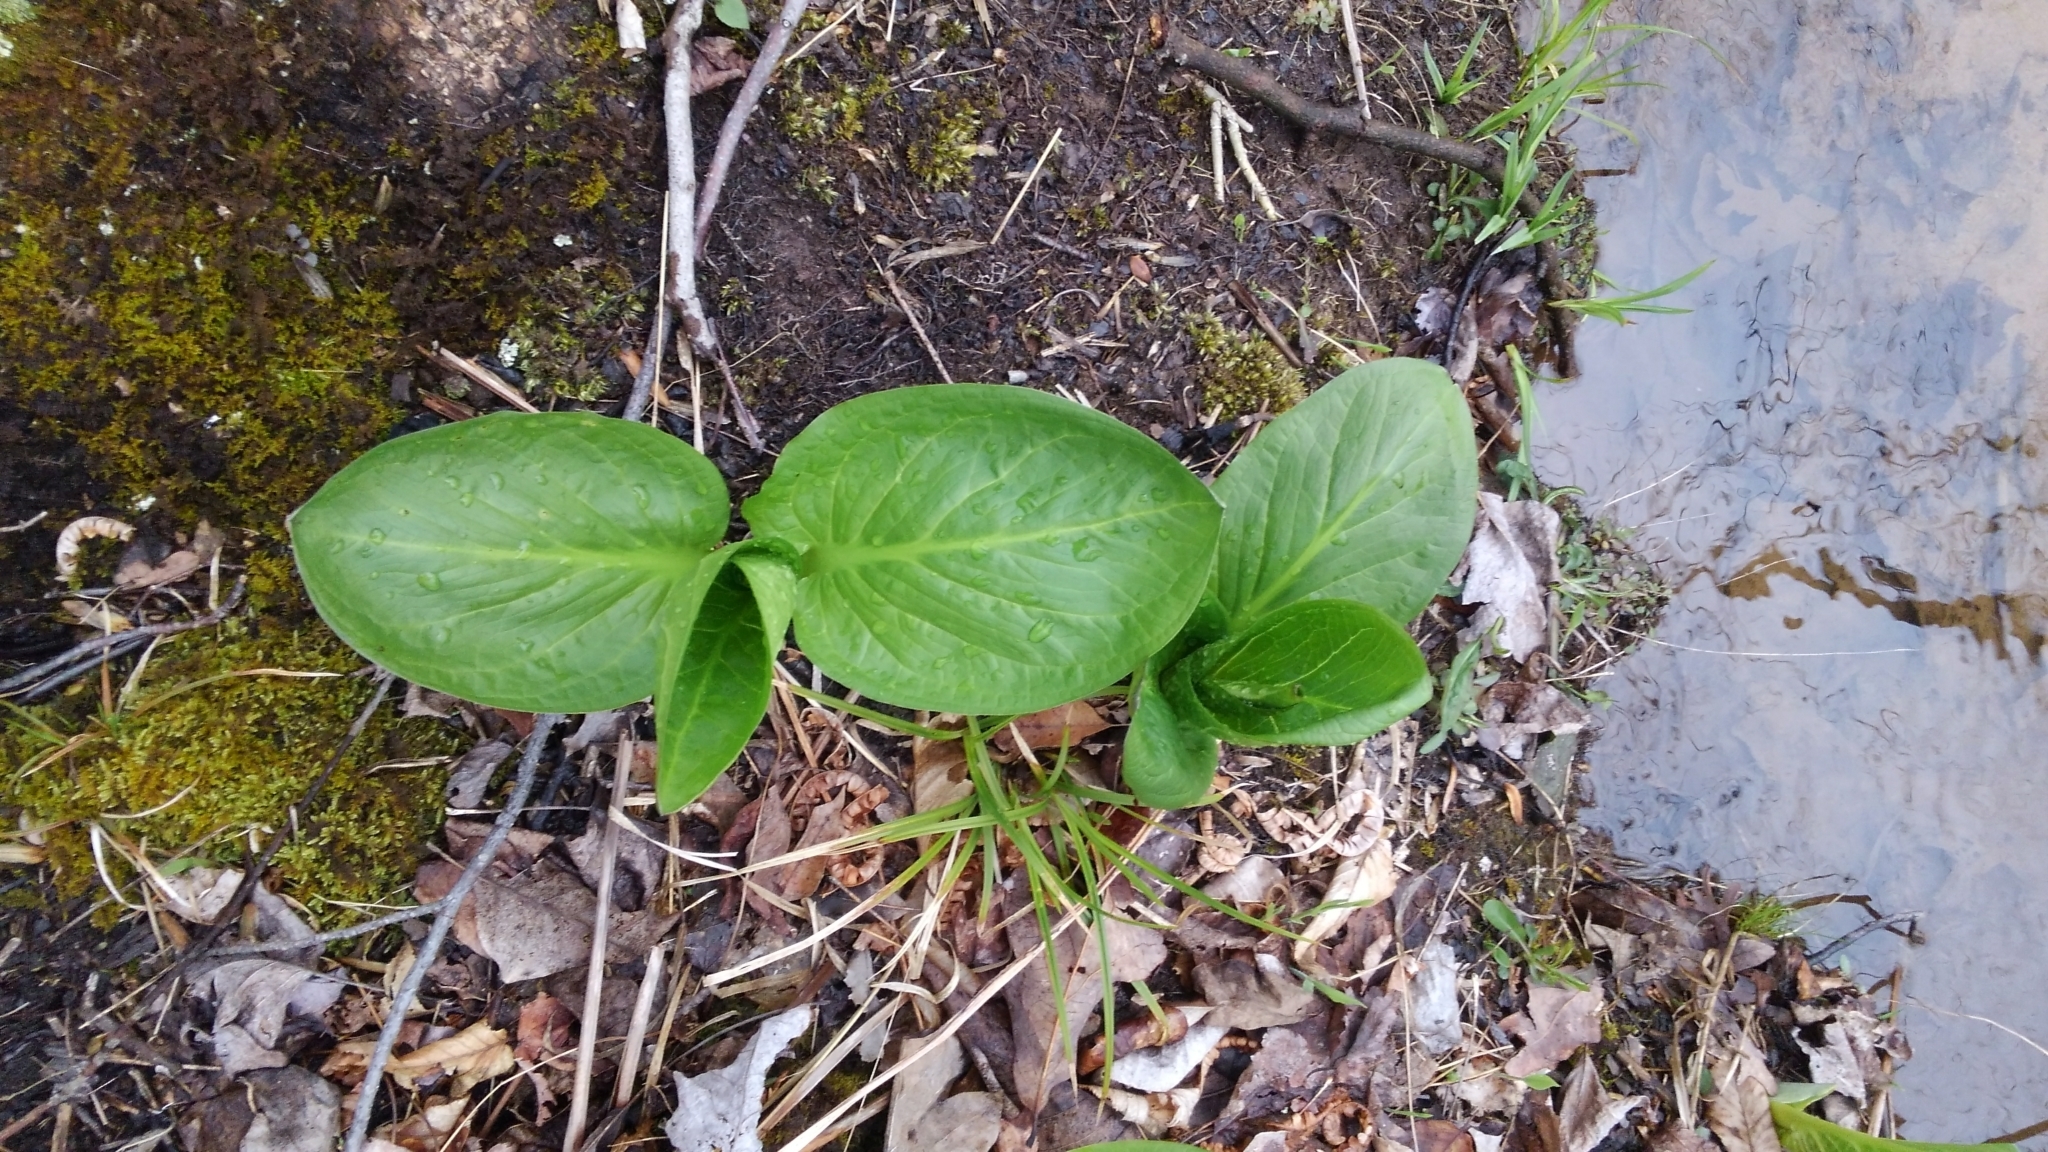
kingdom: Plantae
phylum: Tracheophyta
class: Liliopsida
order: Alismatales
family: Araceae
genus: Symplocarpus
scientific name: Symplocarpus foetidus
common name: Eastern skunk cabbage
